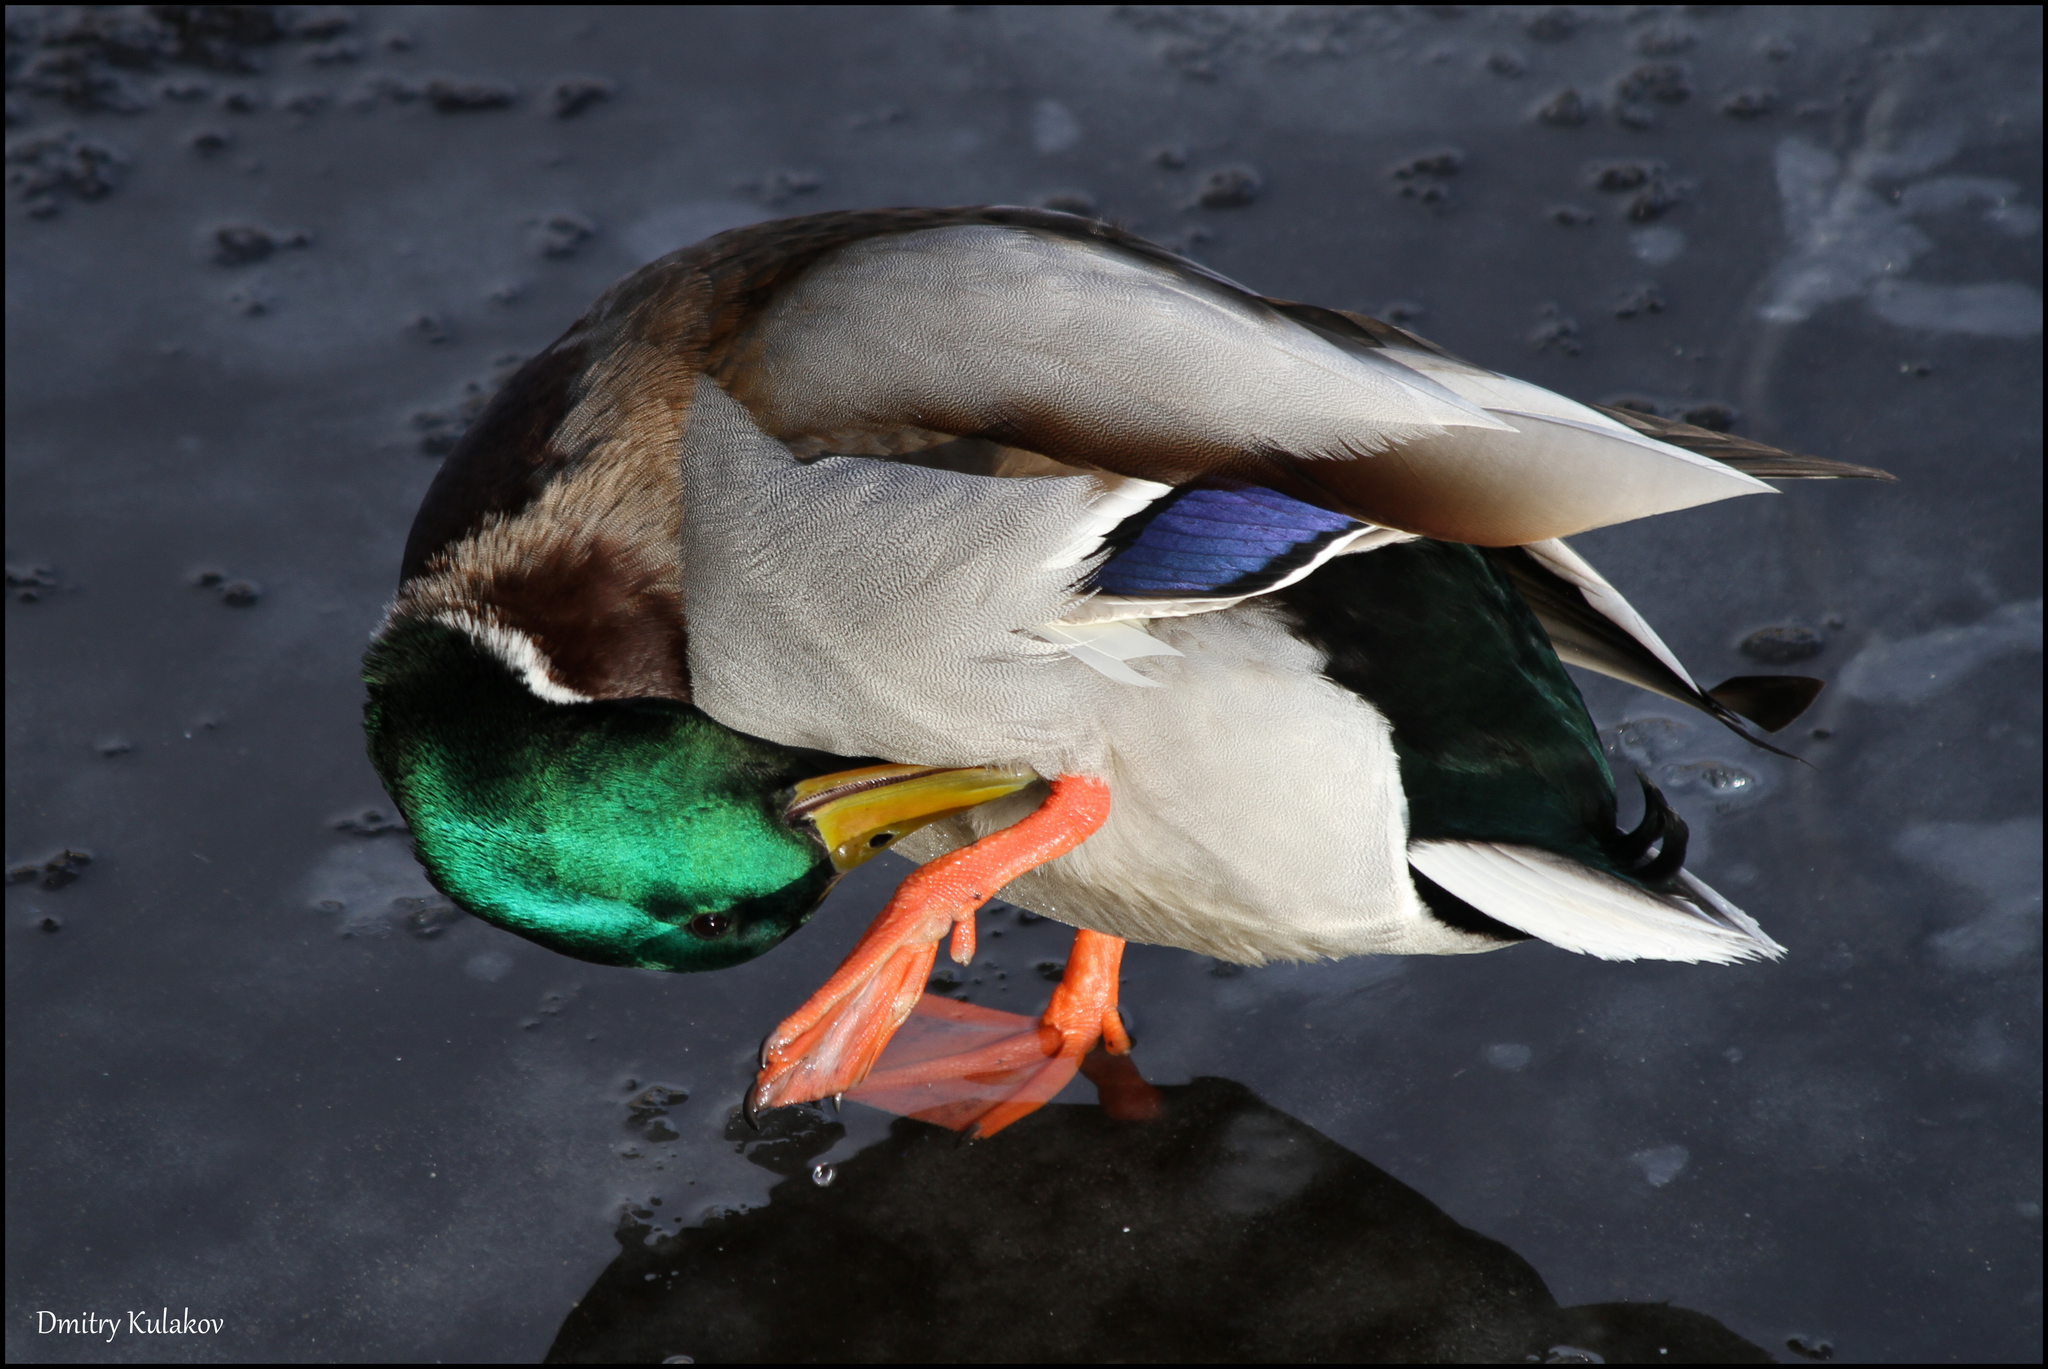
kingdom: Animalia
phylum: Chordata
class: Aves
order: Anseriformes
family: Anatidae
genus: Anas
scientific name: Anas platyrhynchos
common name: Mallard
